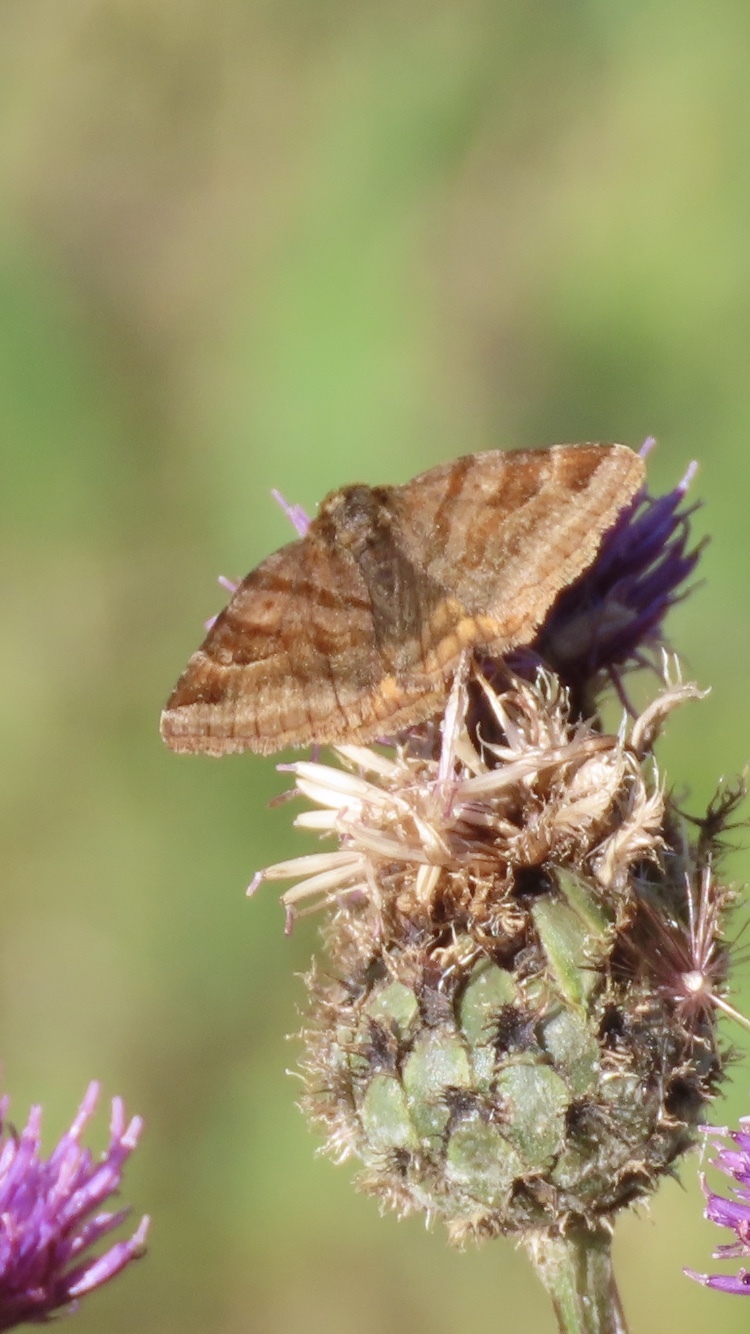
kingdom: Animalia
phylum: Arthropoda
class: Insecta
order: Lepidoptera
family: Erebidae
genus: Euclidia
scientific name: Euclidia glyphica
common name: Burnet companion
